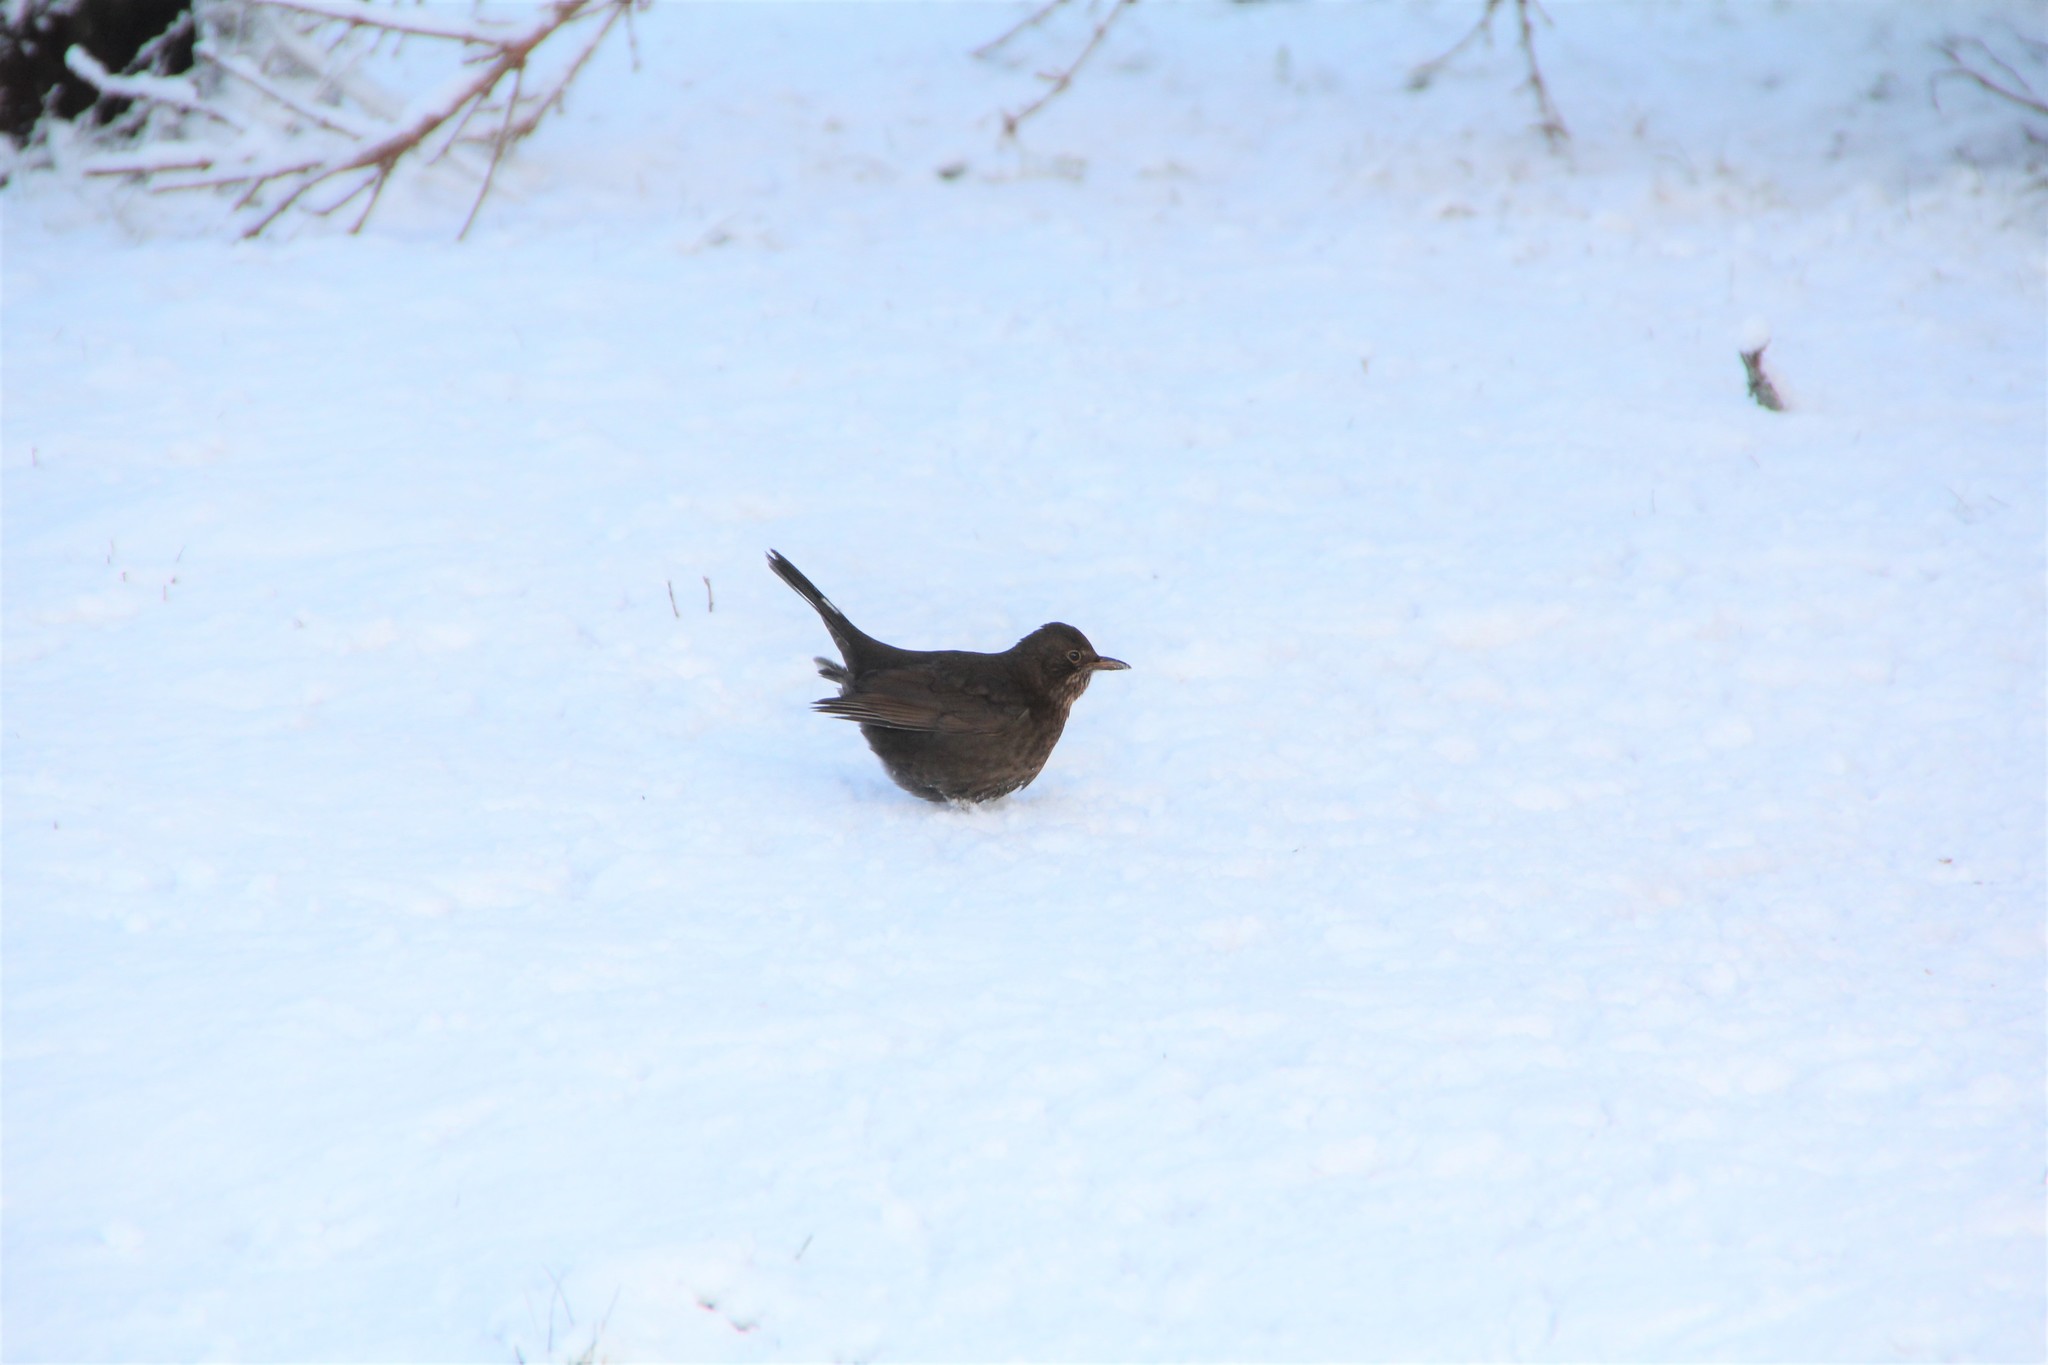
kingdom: Animalia
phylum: Chordata
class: Aves
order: Passeriformes
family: Turdidae
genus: Turdus
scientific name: Turdus merula
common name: Common blackbird
